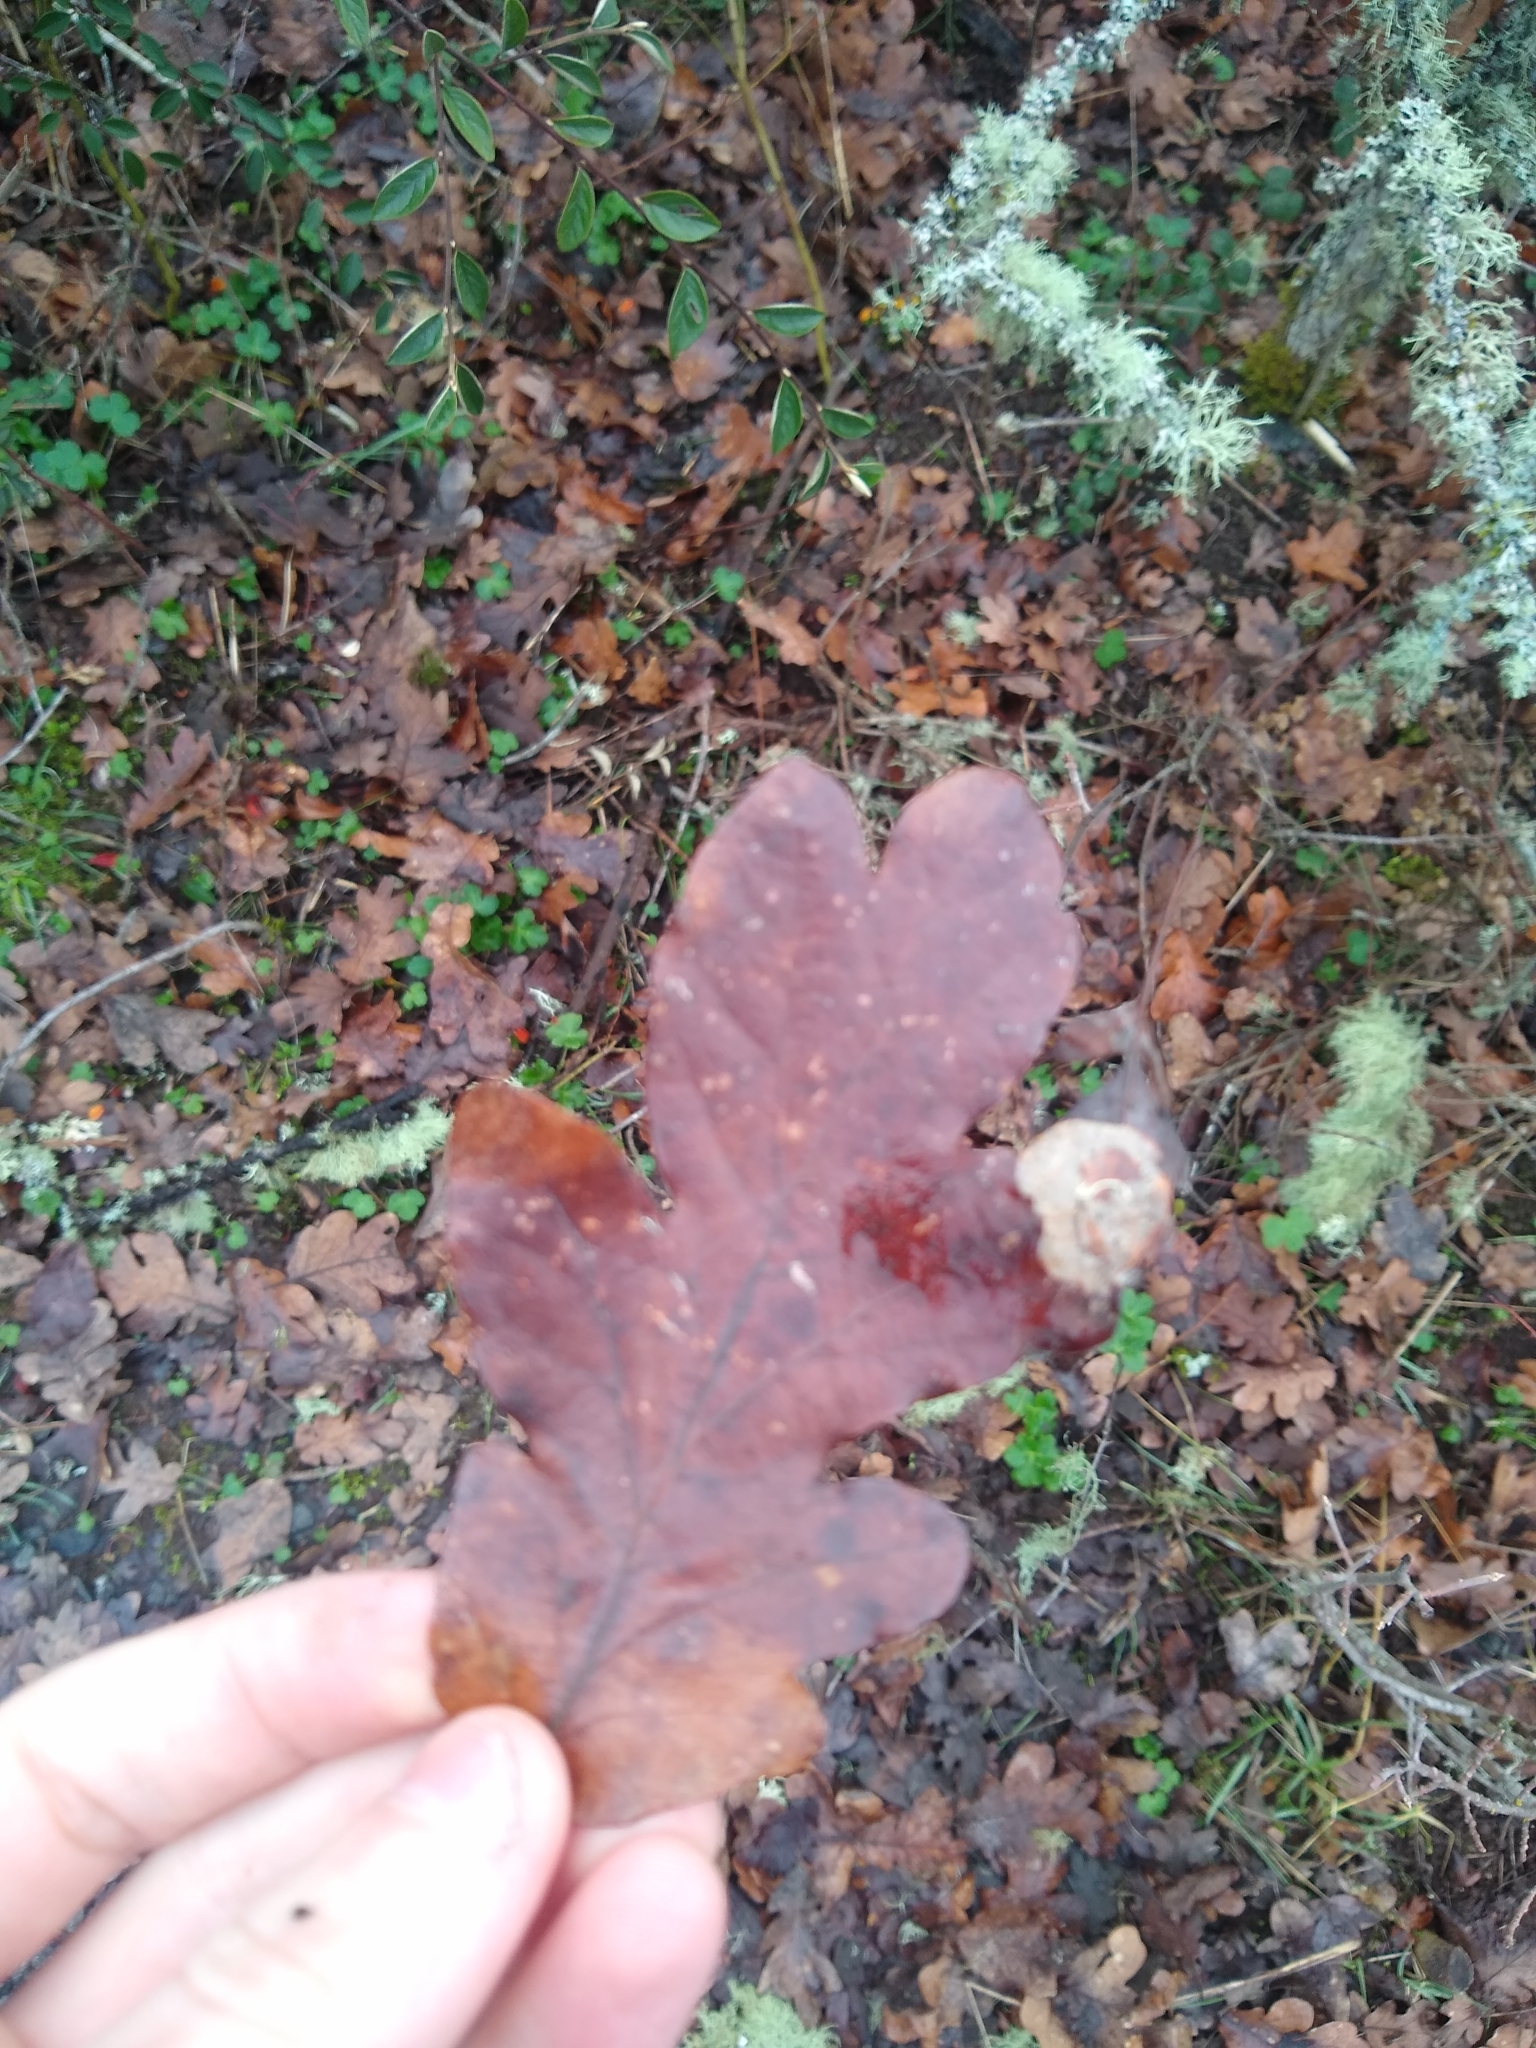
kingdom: Plantae
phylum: Tracheophyta
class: Magnoliopsida
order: Fagales
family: Fagaceae
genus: Quercus
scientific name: Quercus garryana
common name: Garry oak
